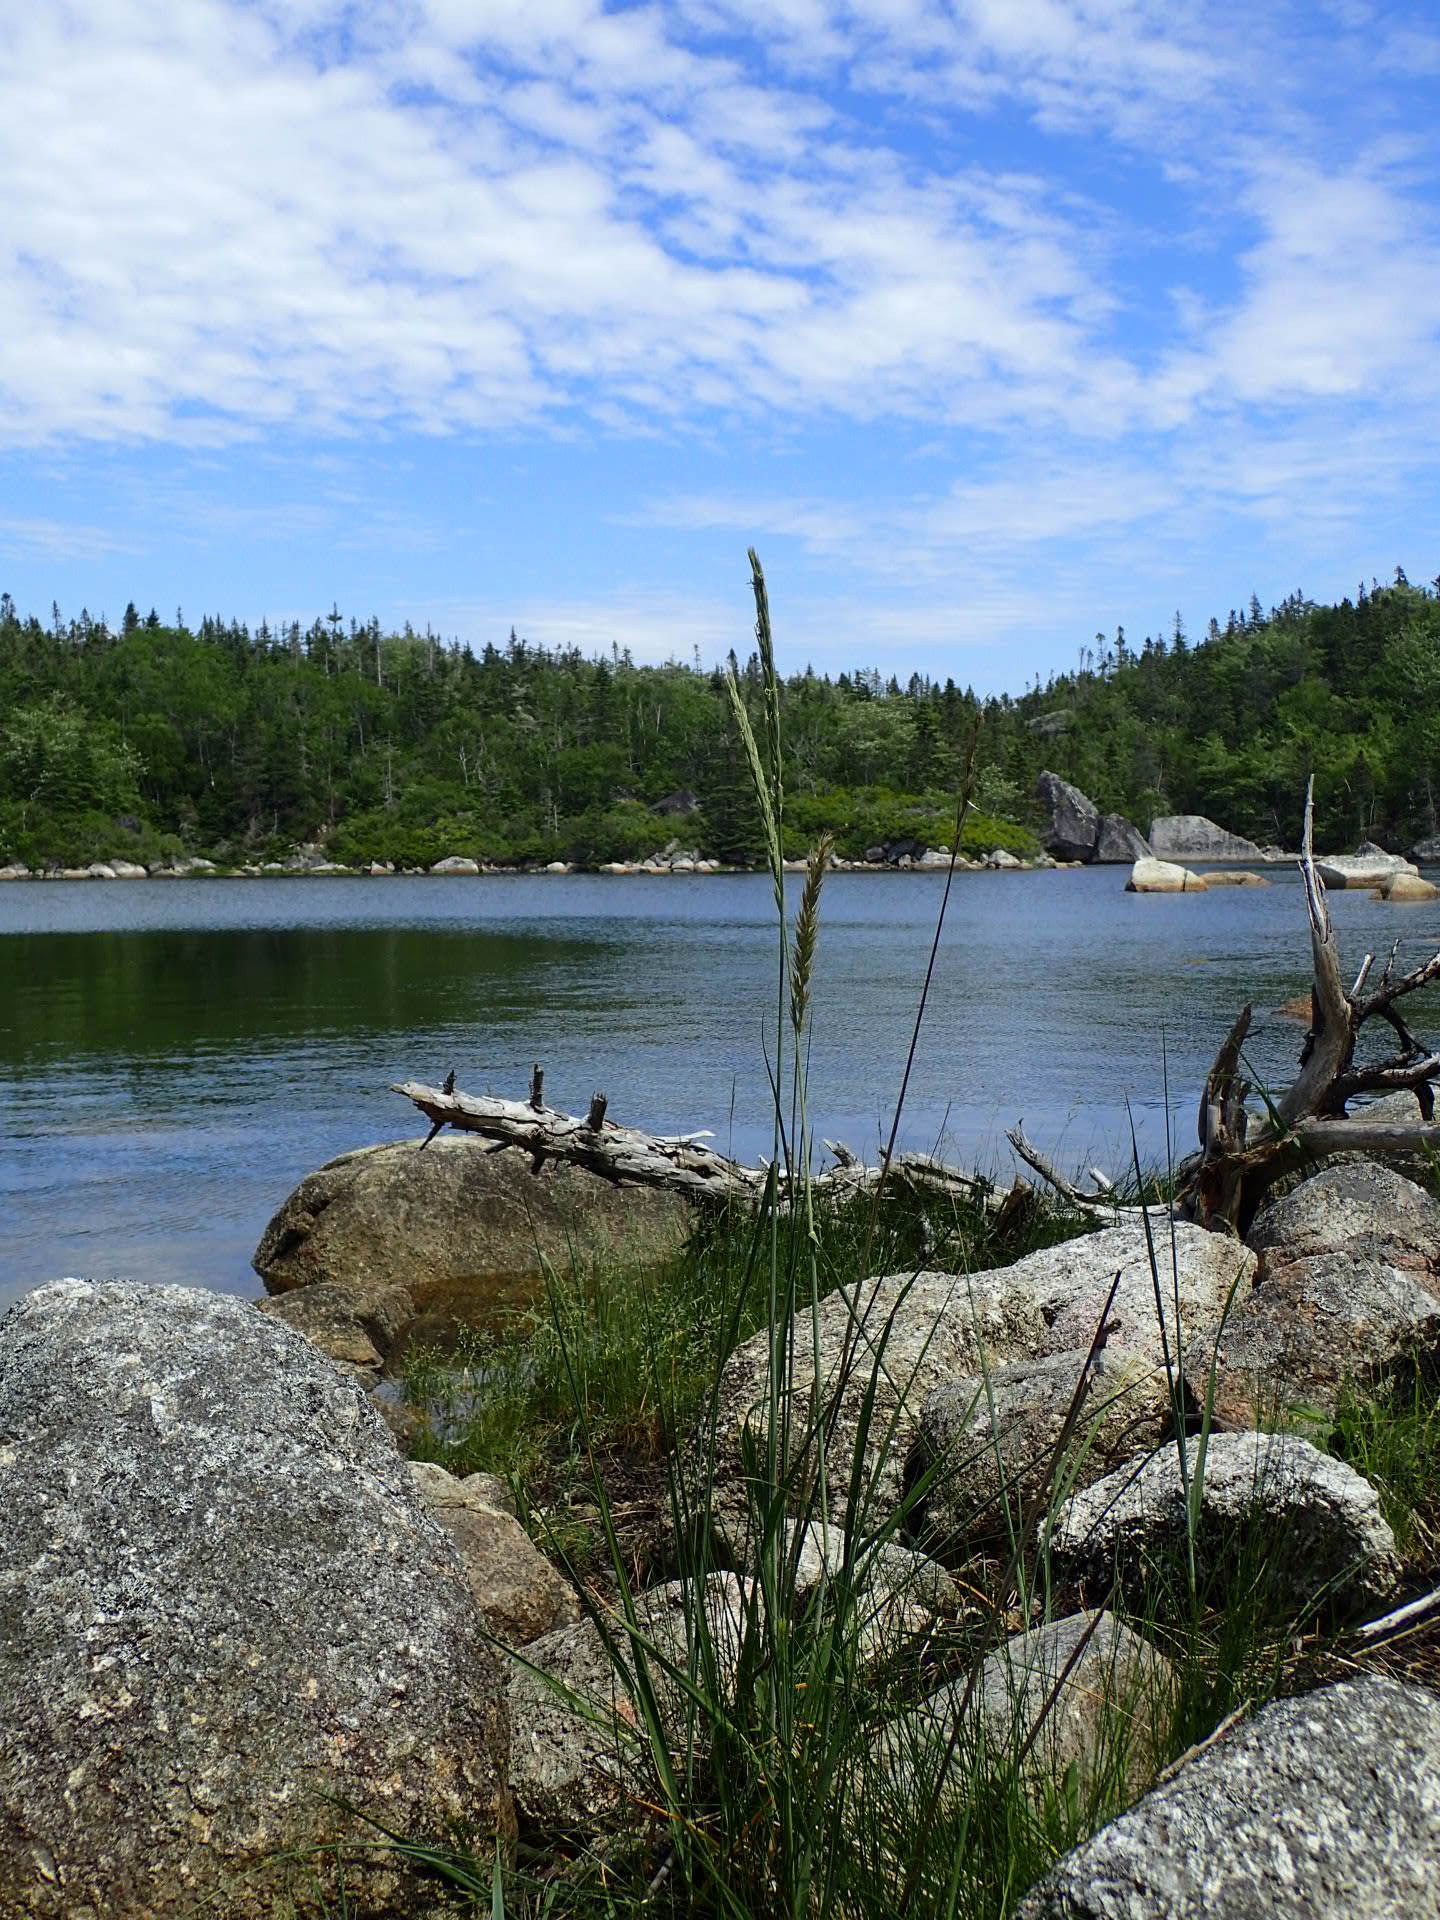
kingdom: Plantae
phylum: Tracheophyta
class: Liliopsida
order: Poales
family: Poaceae
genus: Leymus
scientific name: Leymus mollis
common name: American dune grass
